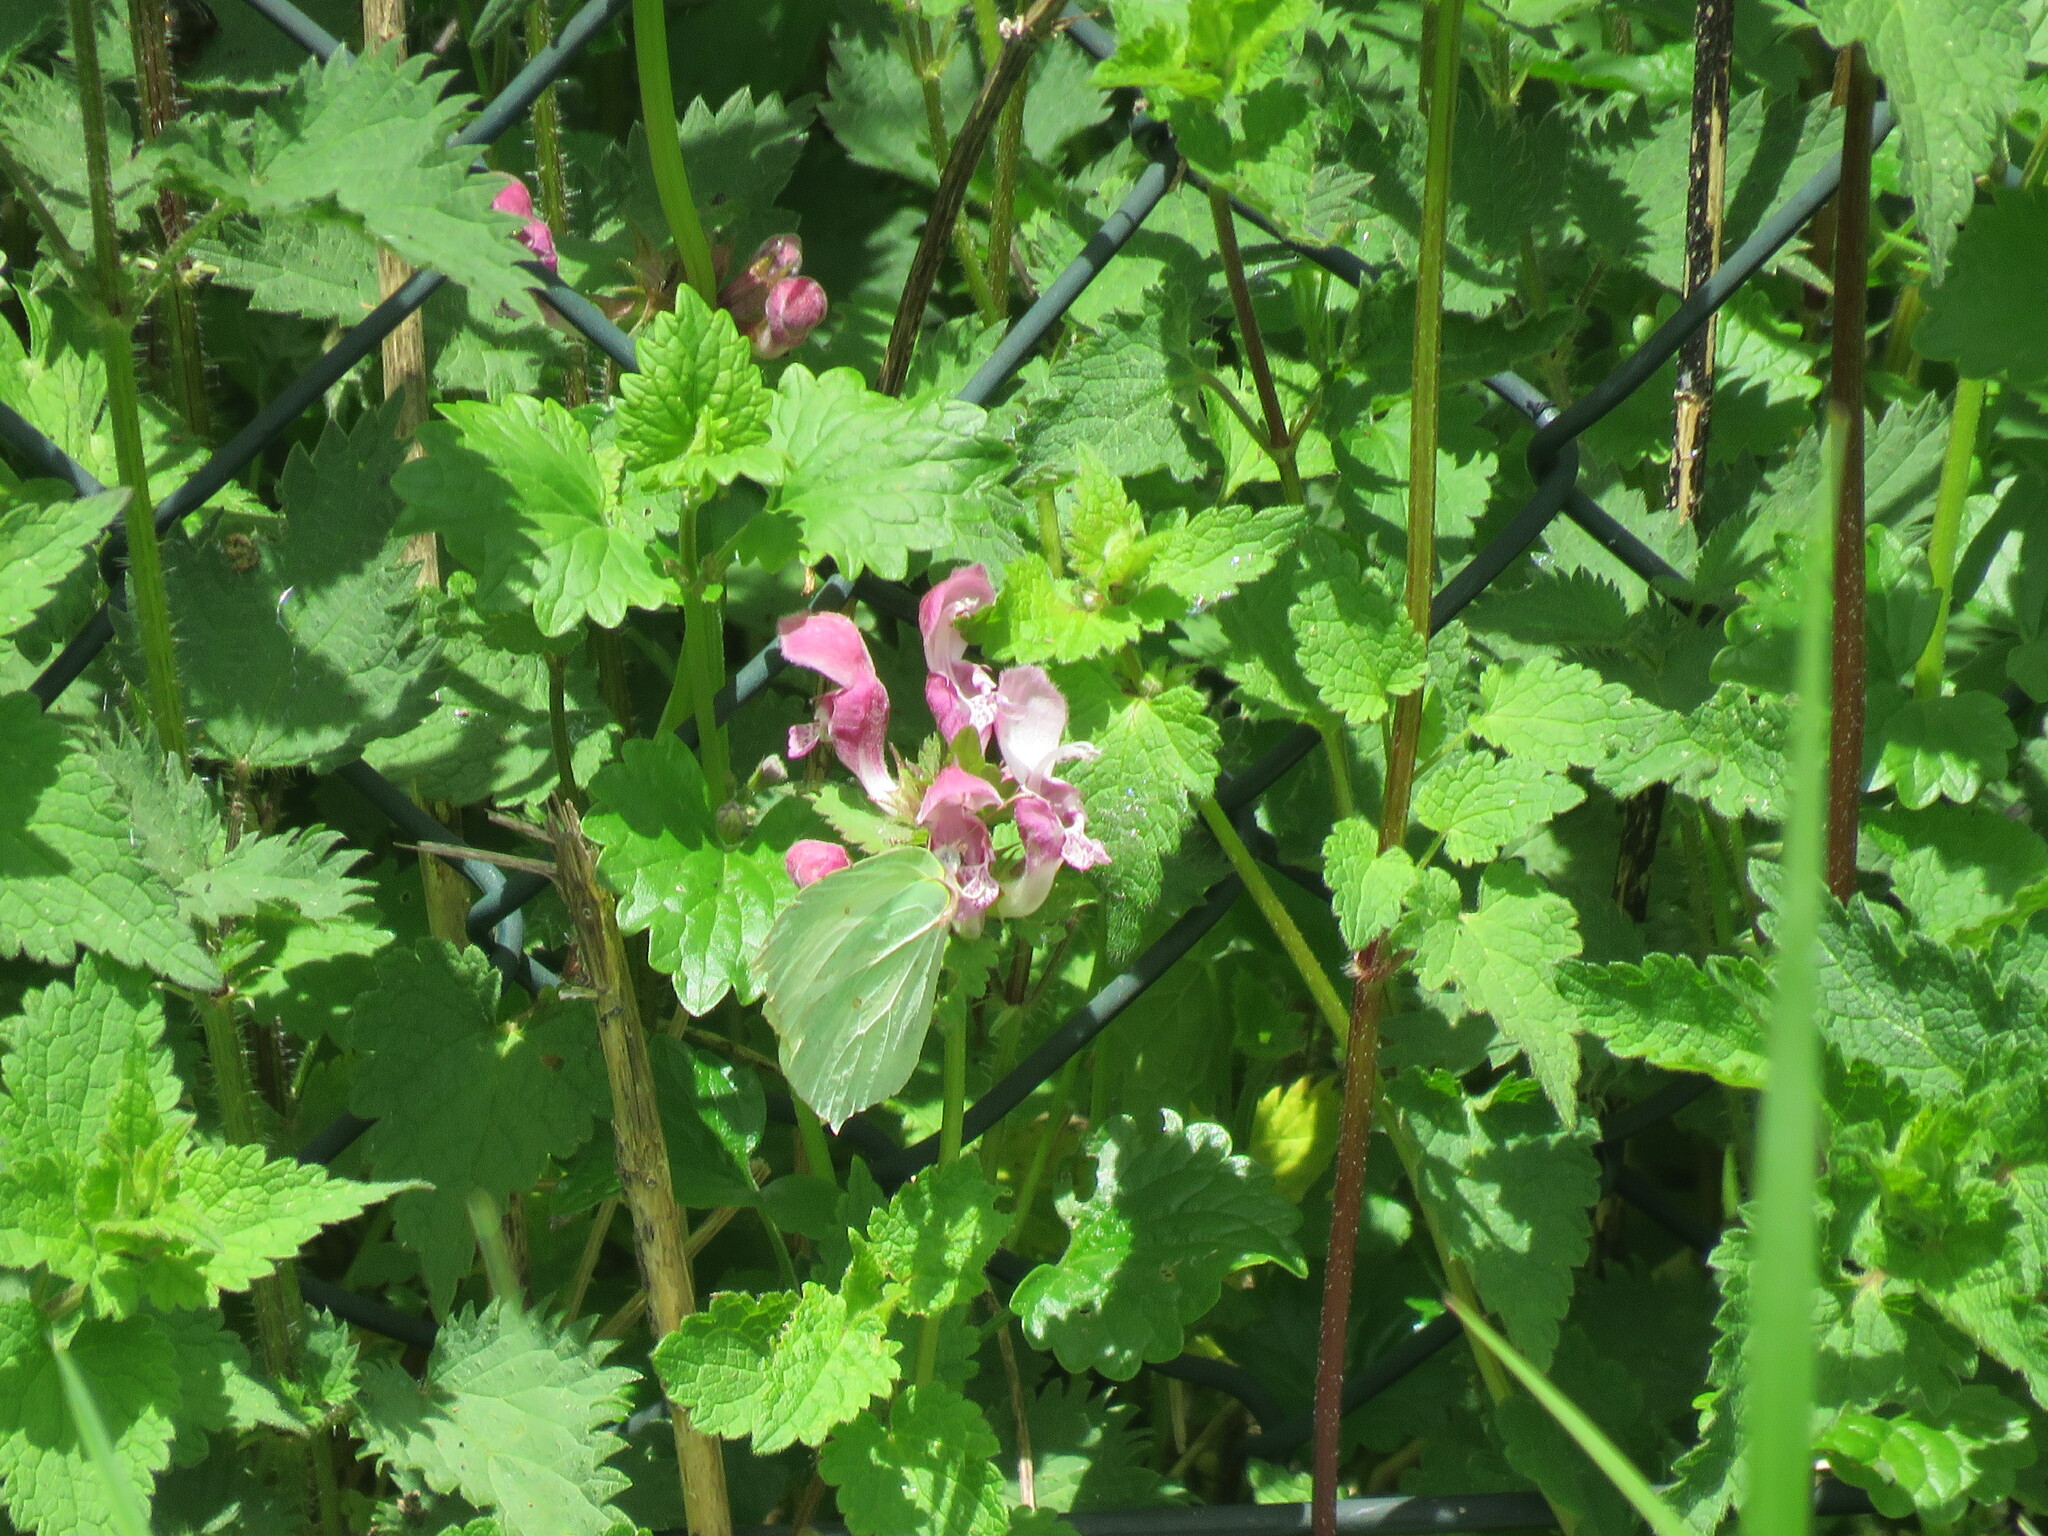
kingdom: Animalia
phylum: Arthropoda
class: Insecta
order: Lepidoptera
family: Pieridae
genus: Gonepteryx
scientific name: Gonepteryx rhamni
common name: Brimstone
